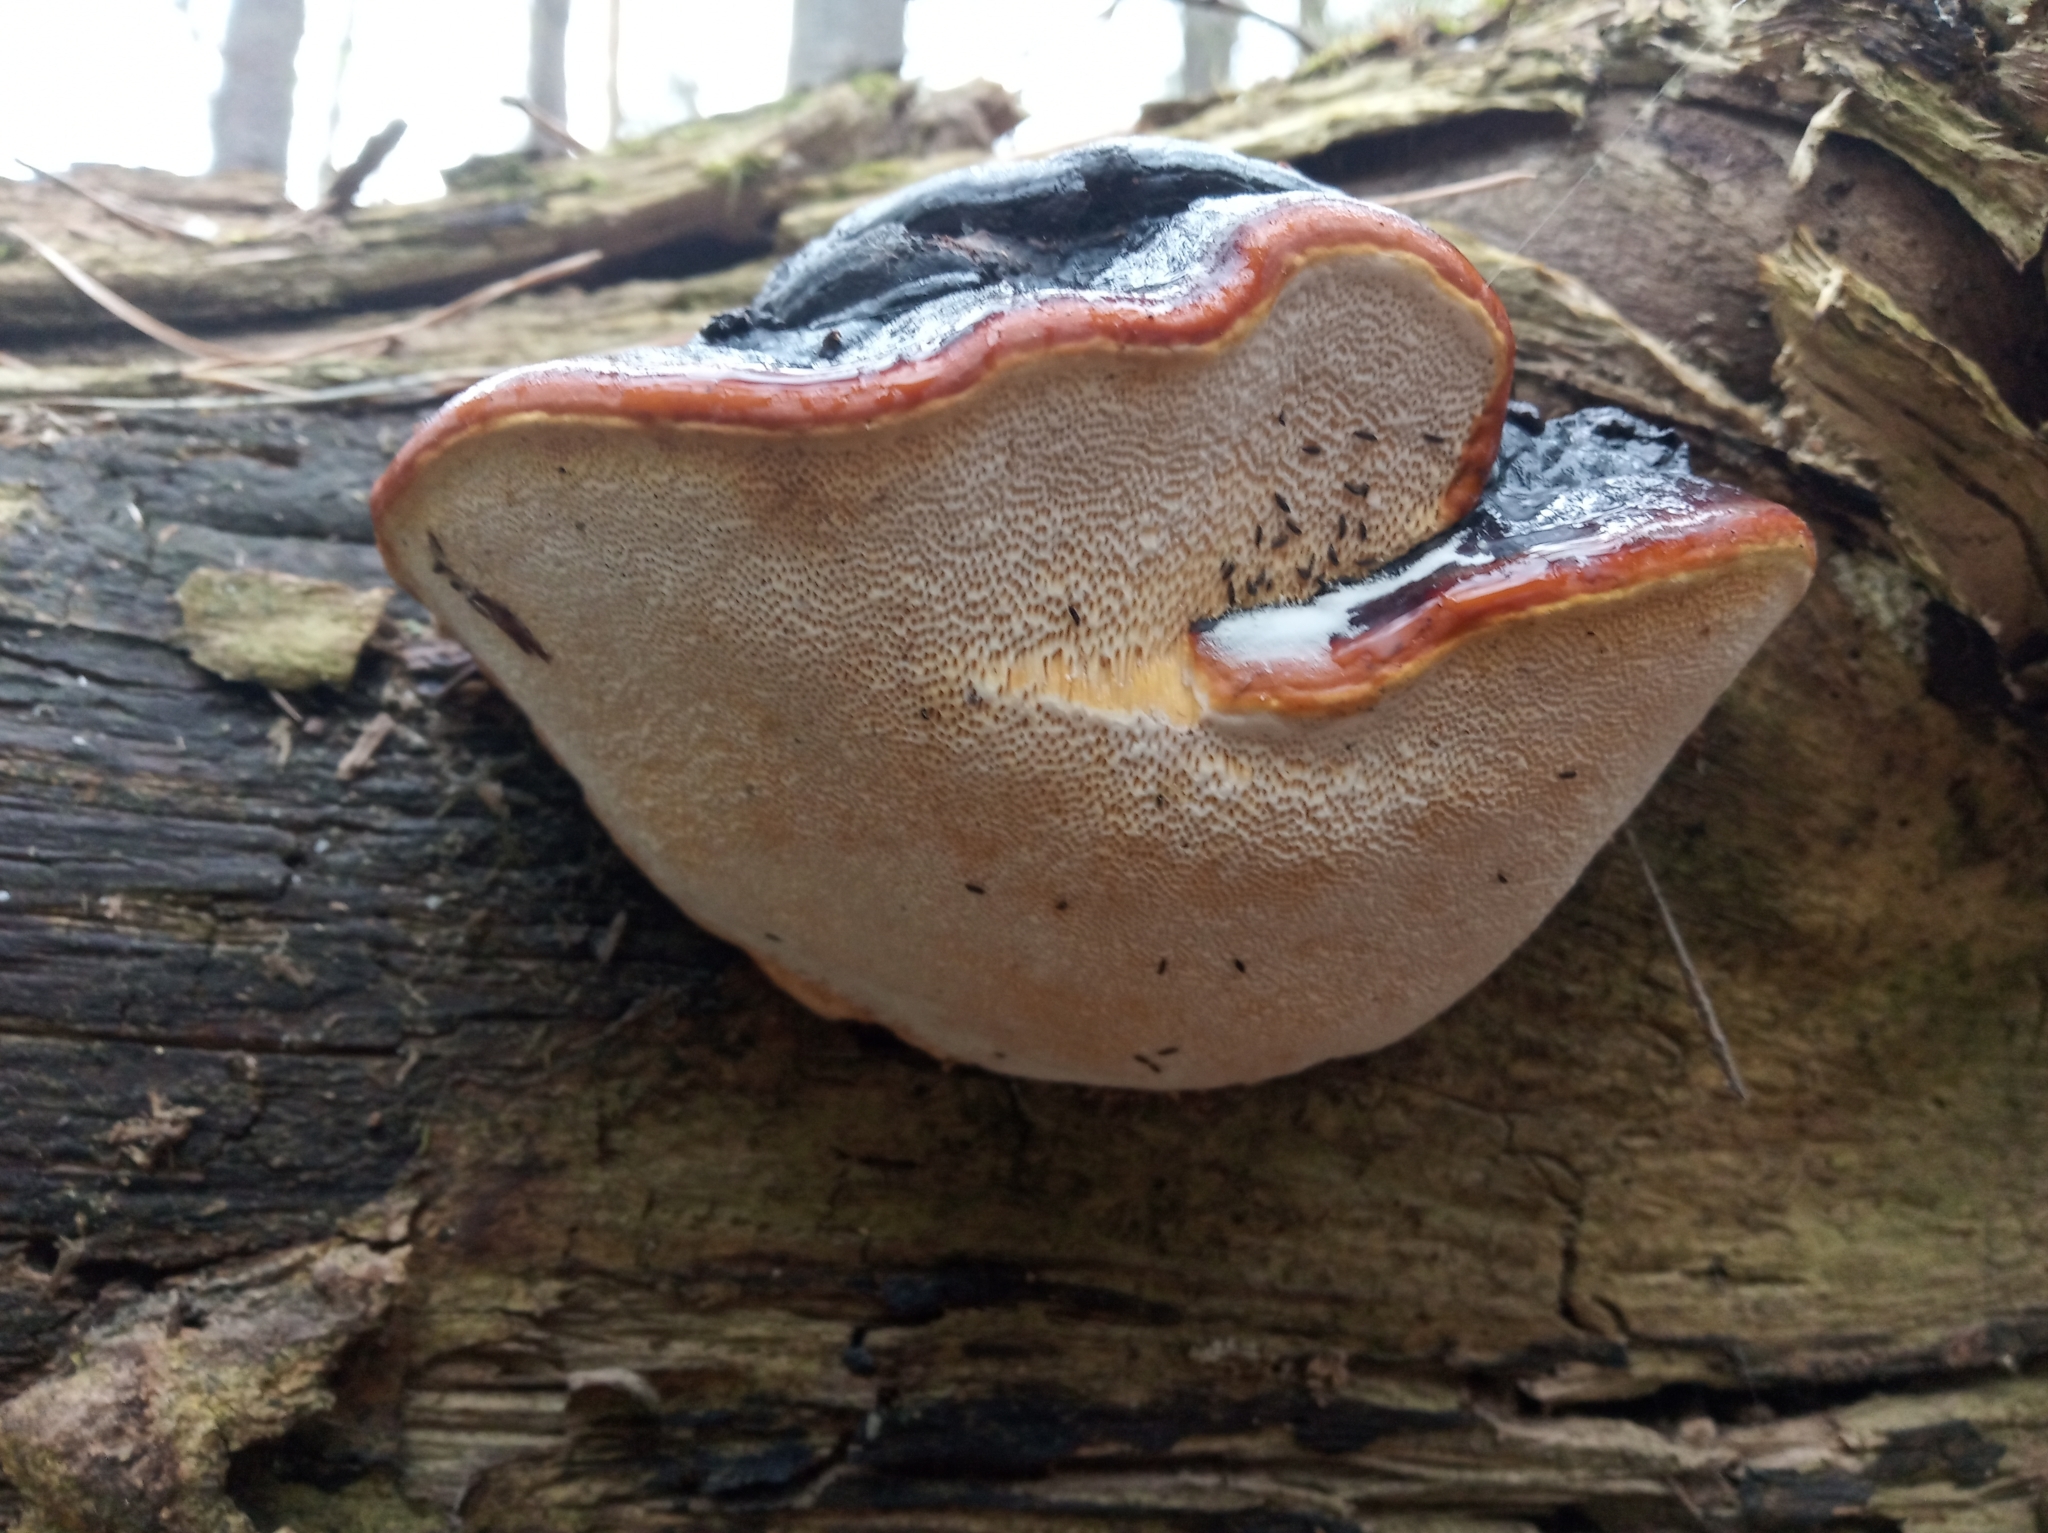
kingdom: Fungi
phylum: Basidiomycota
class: Agaricomycetes
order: Polyporales
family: Fomitopsidaceae
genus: Fomitopsis
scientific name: Fomitopsis pinicola
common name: Red-belted bracket
